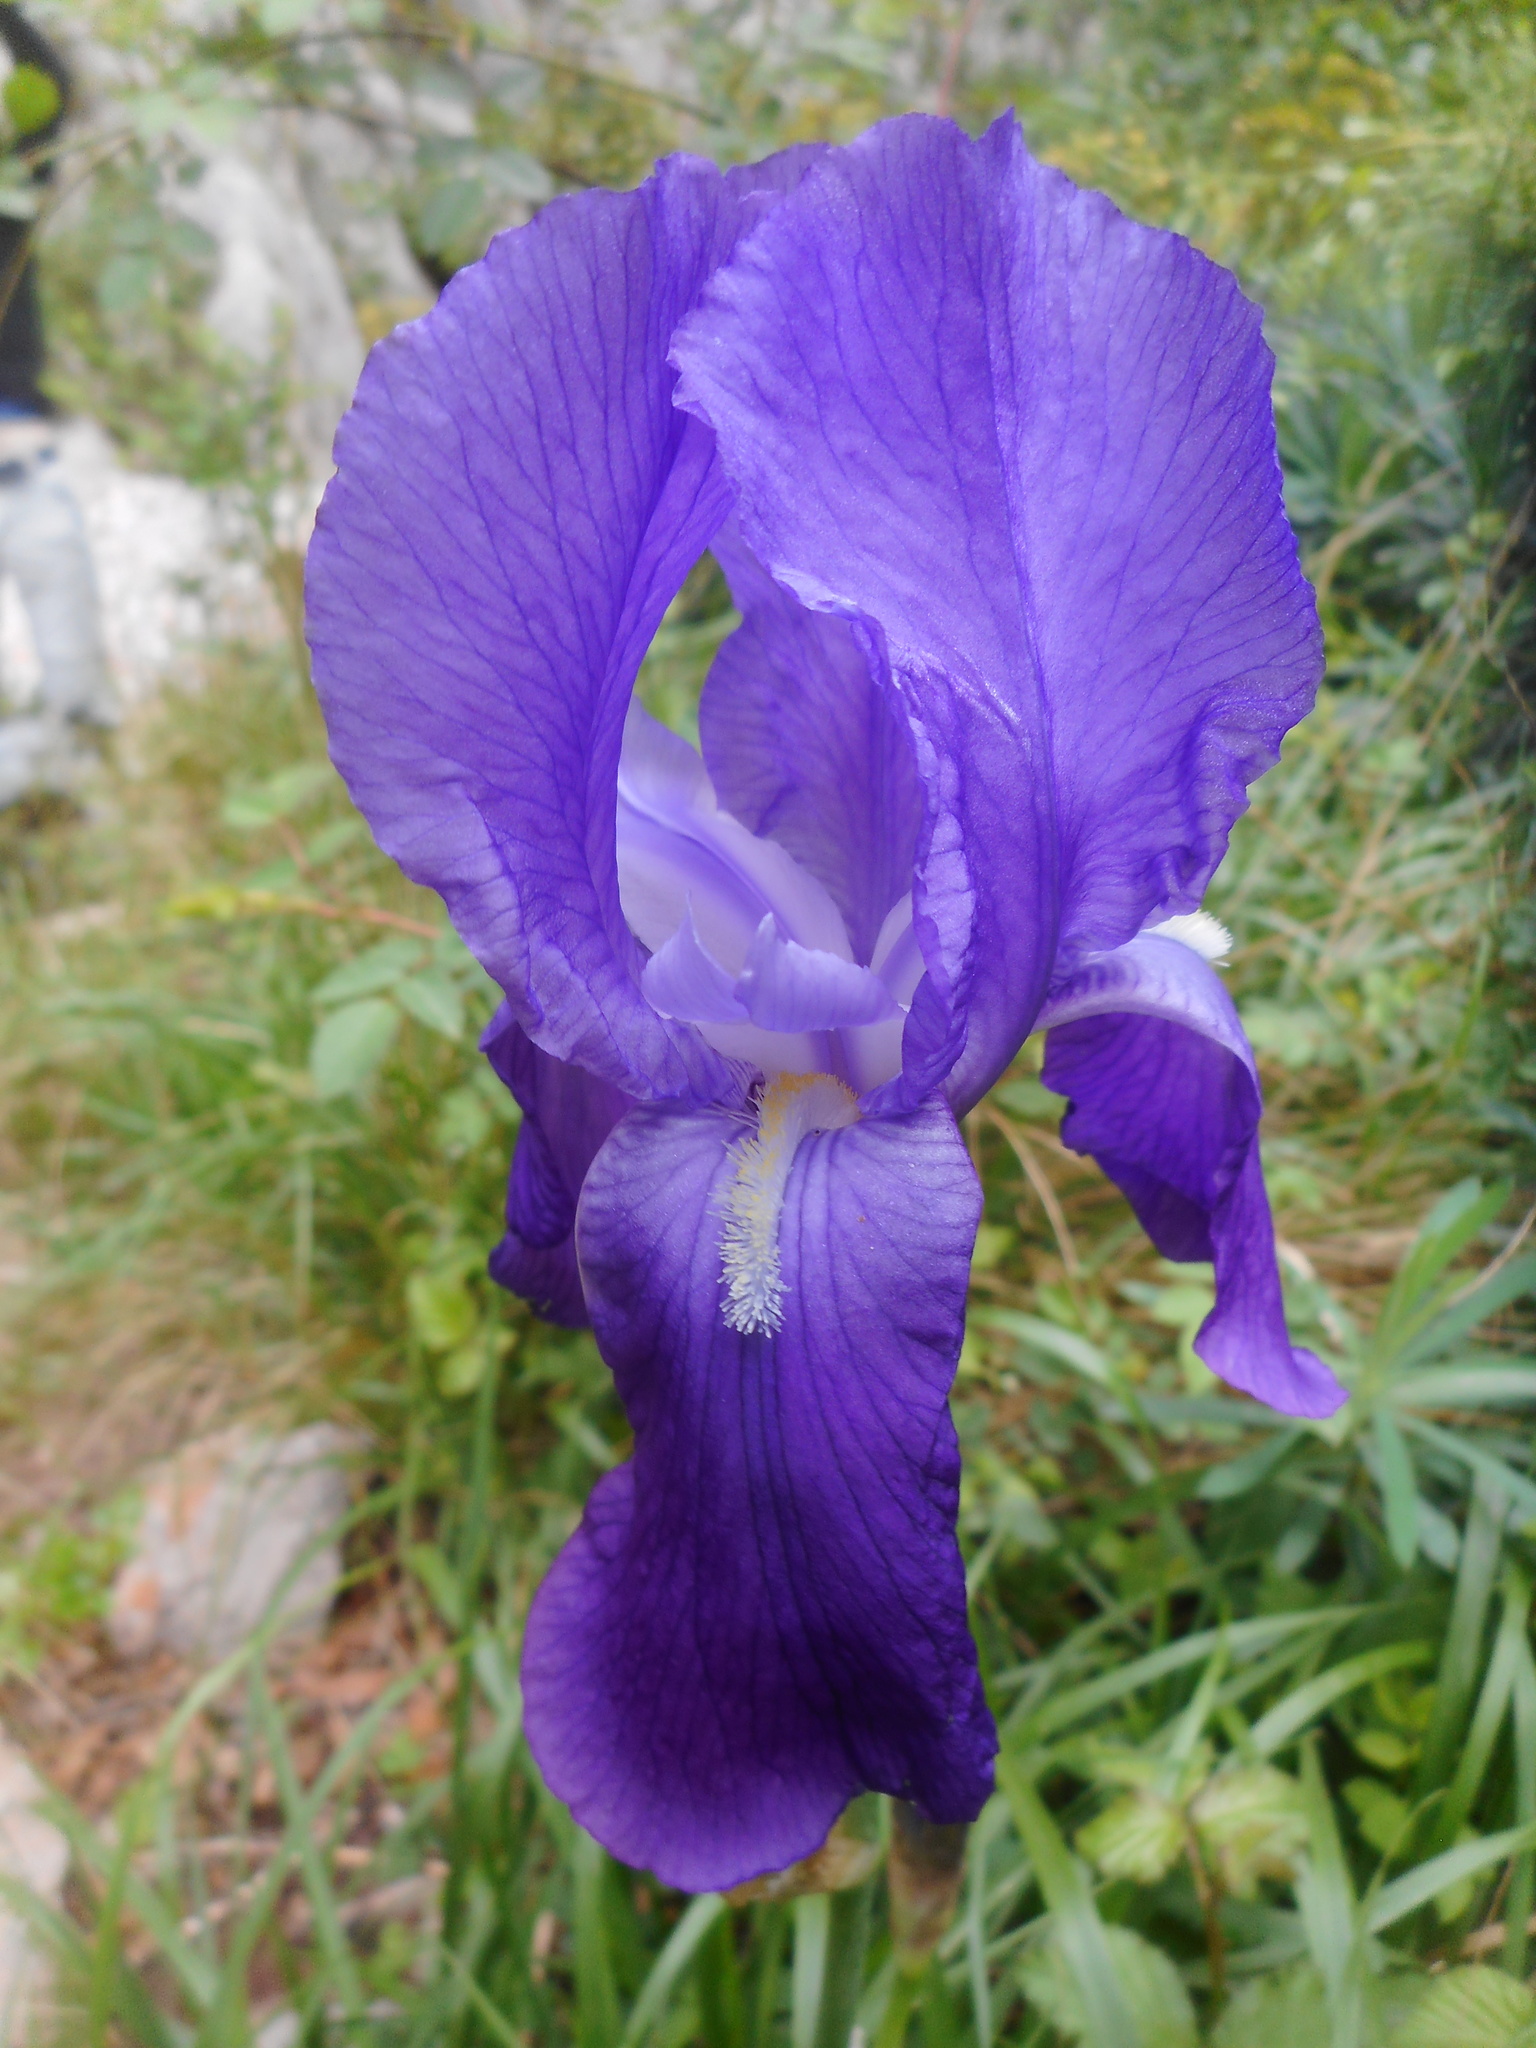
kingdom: Plantae
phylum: Tracheophyta
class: Liliopsida
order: Asparagales
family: Iridaceae
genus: Iris
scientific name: Iris pallida
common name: Sweet iris
